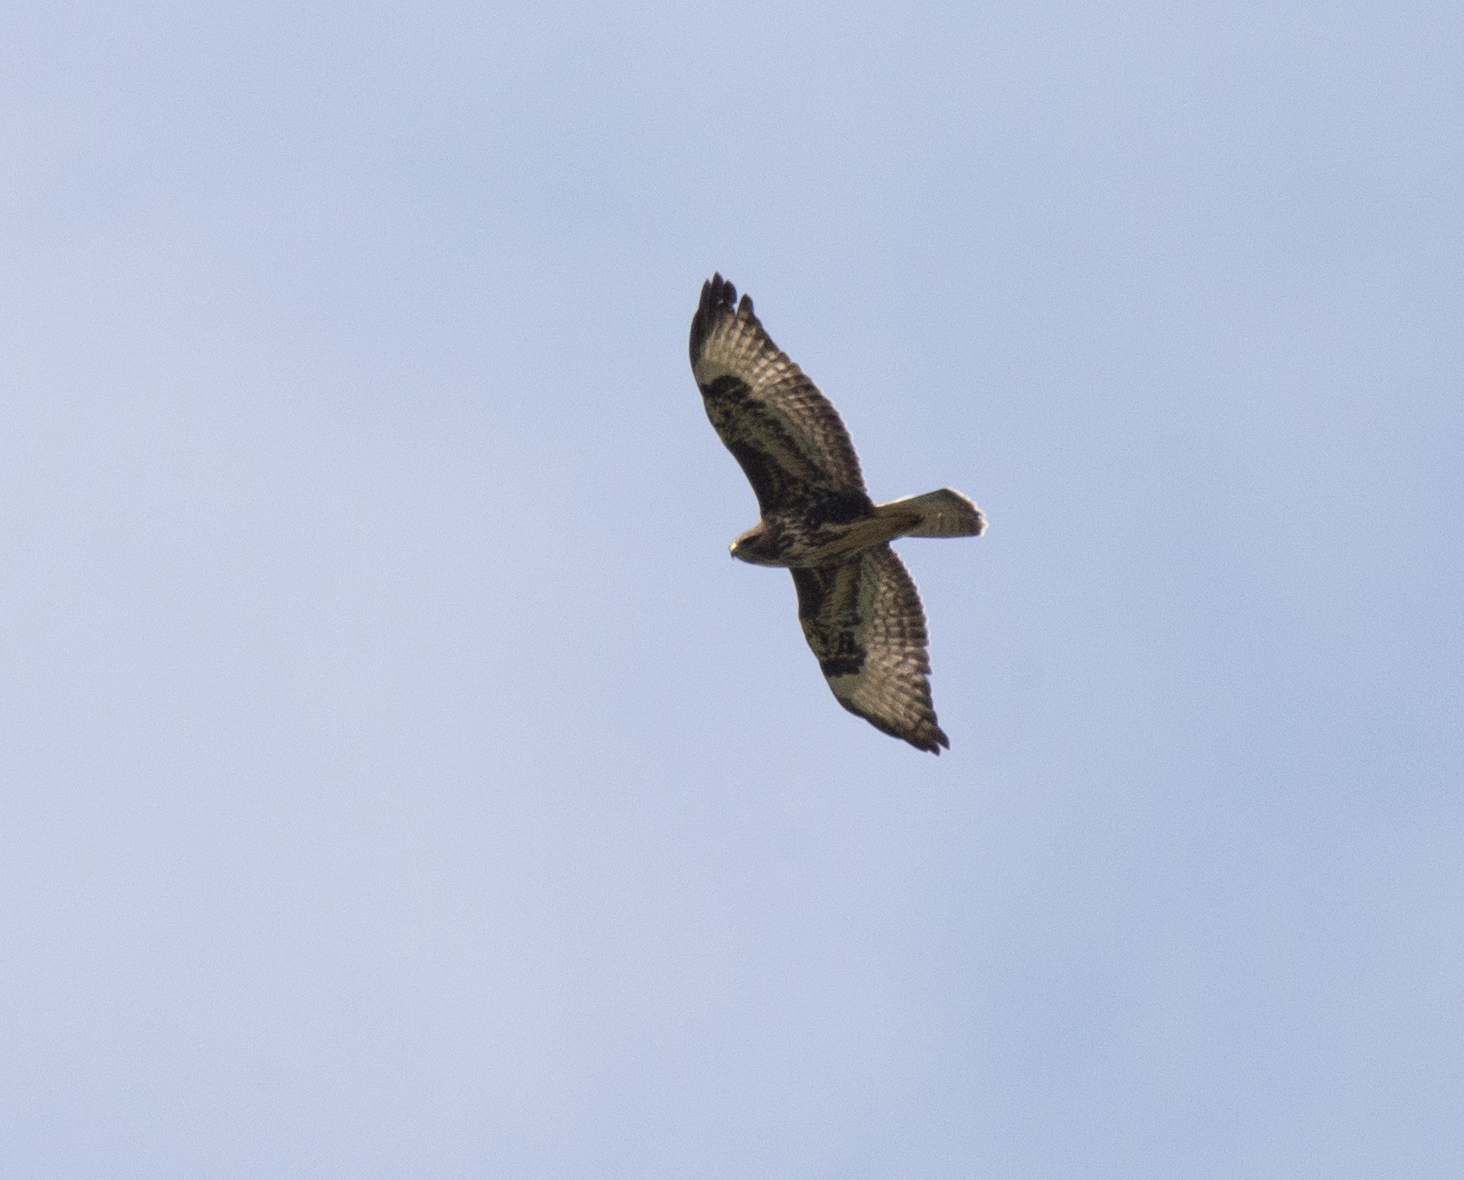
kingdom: Animalia
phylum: Chordata
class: Aves
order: Accipitriformes
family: Accipitridae
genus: Buteo
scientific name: Buteo buteo
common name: Common buzzard
